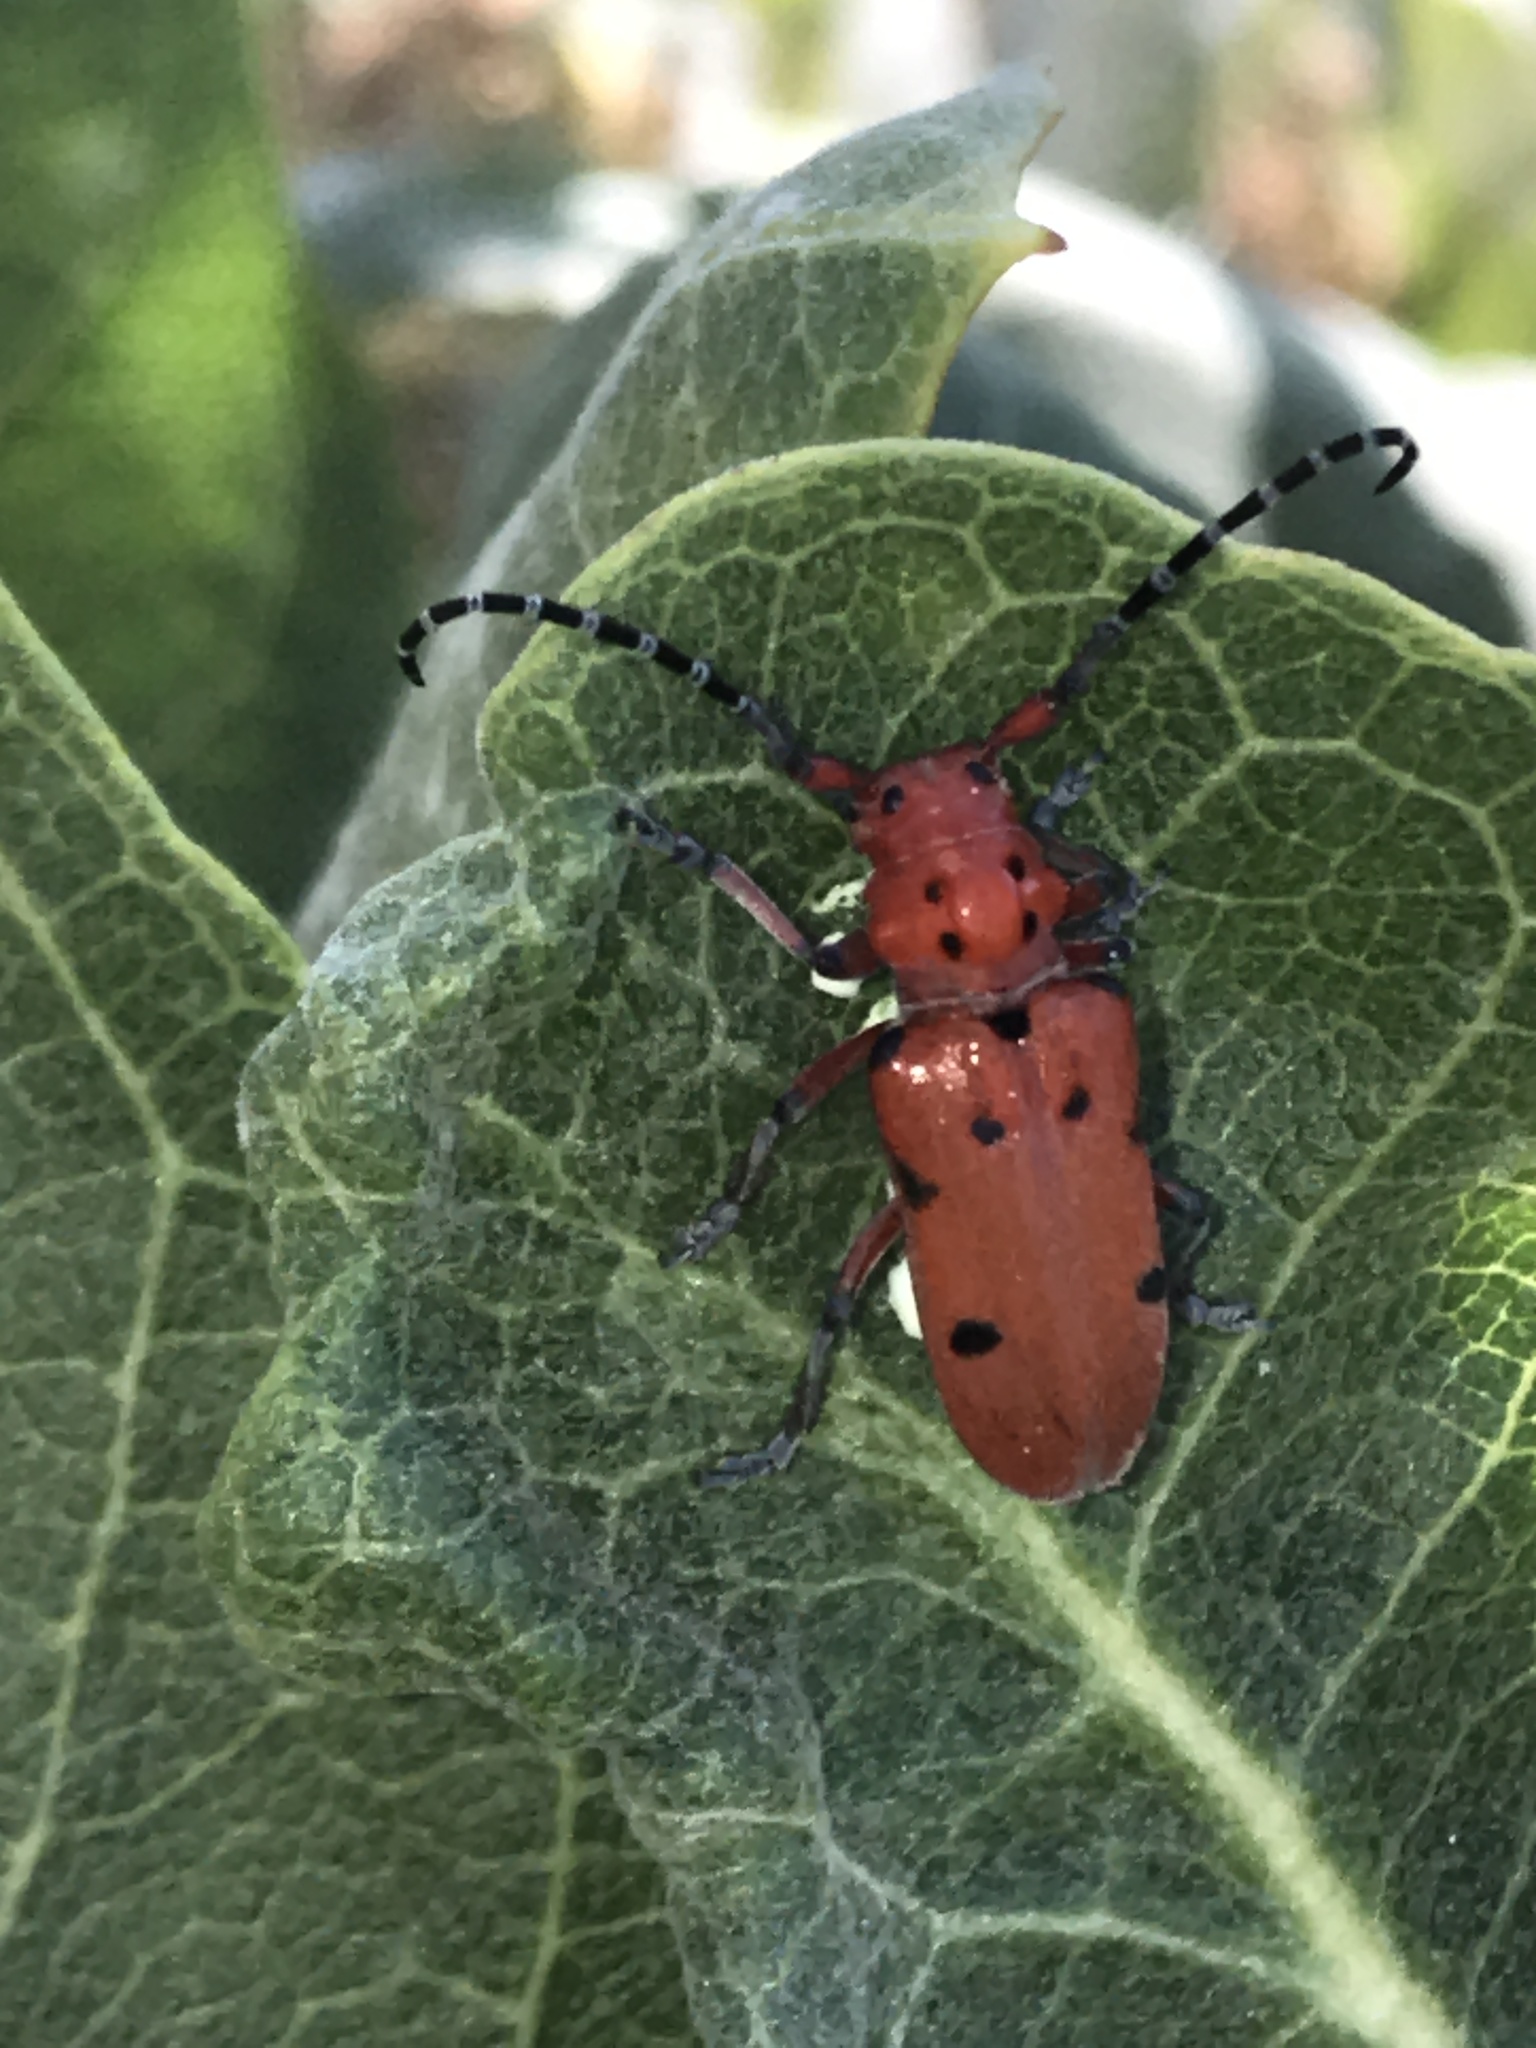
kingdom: Animalia
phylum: Arthropoda
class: Insecta
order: Coleoptera
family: Cerambycidae
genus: Tetraopes
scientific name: Tetraopes femoratus
